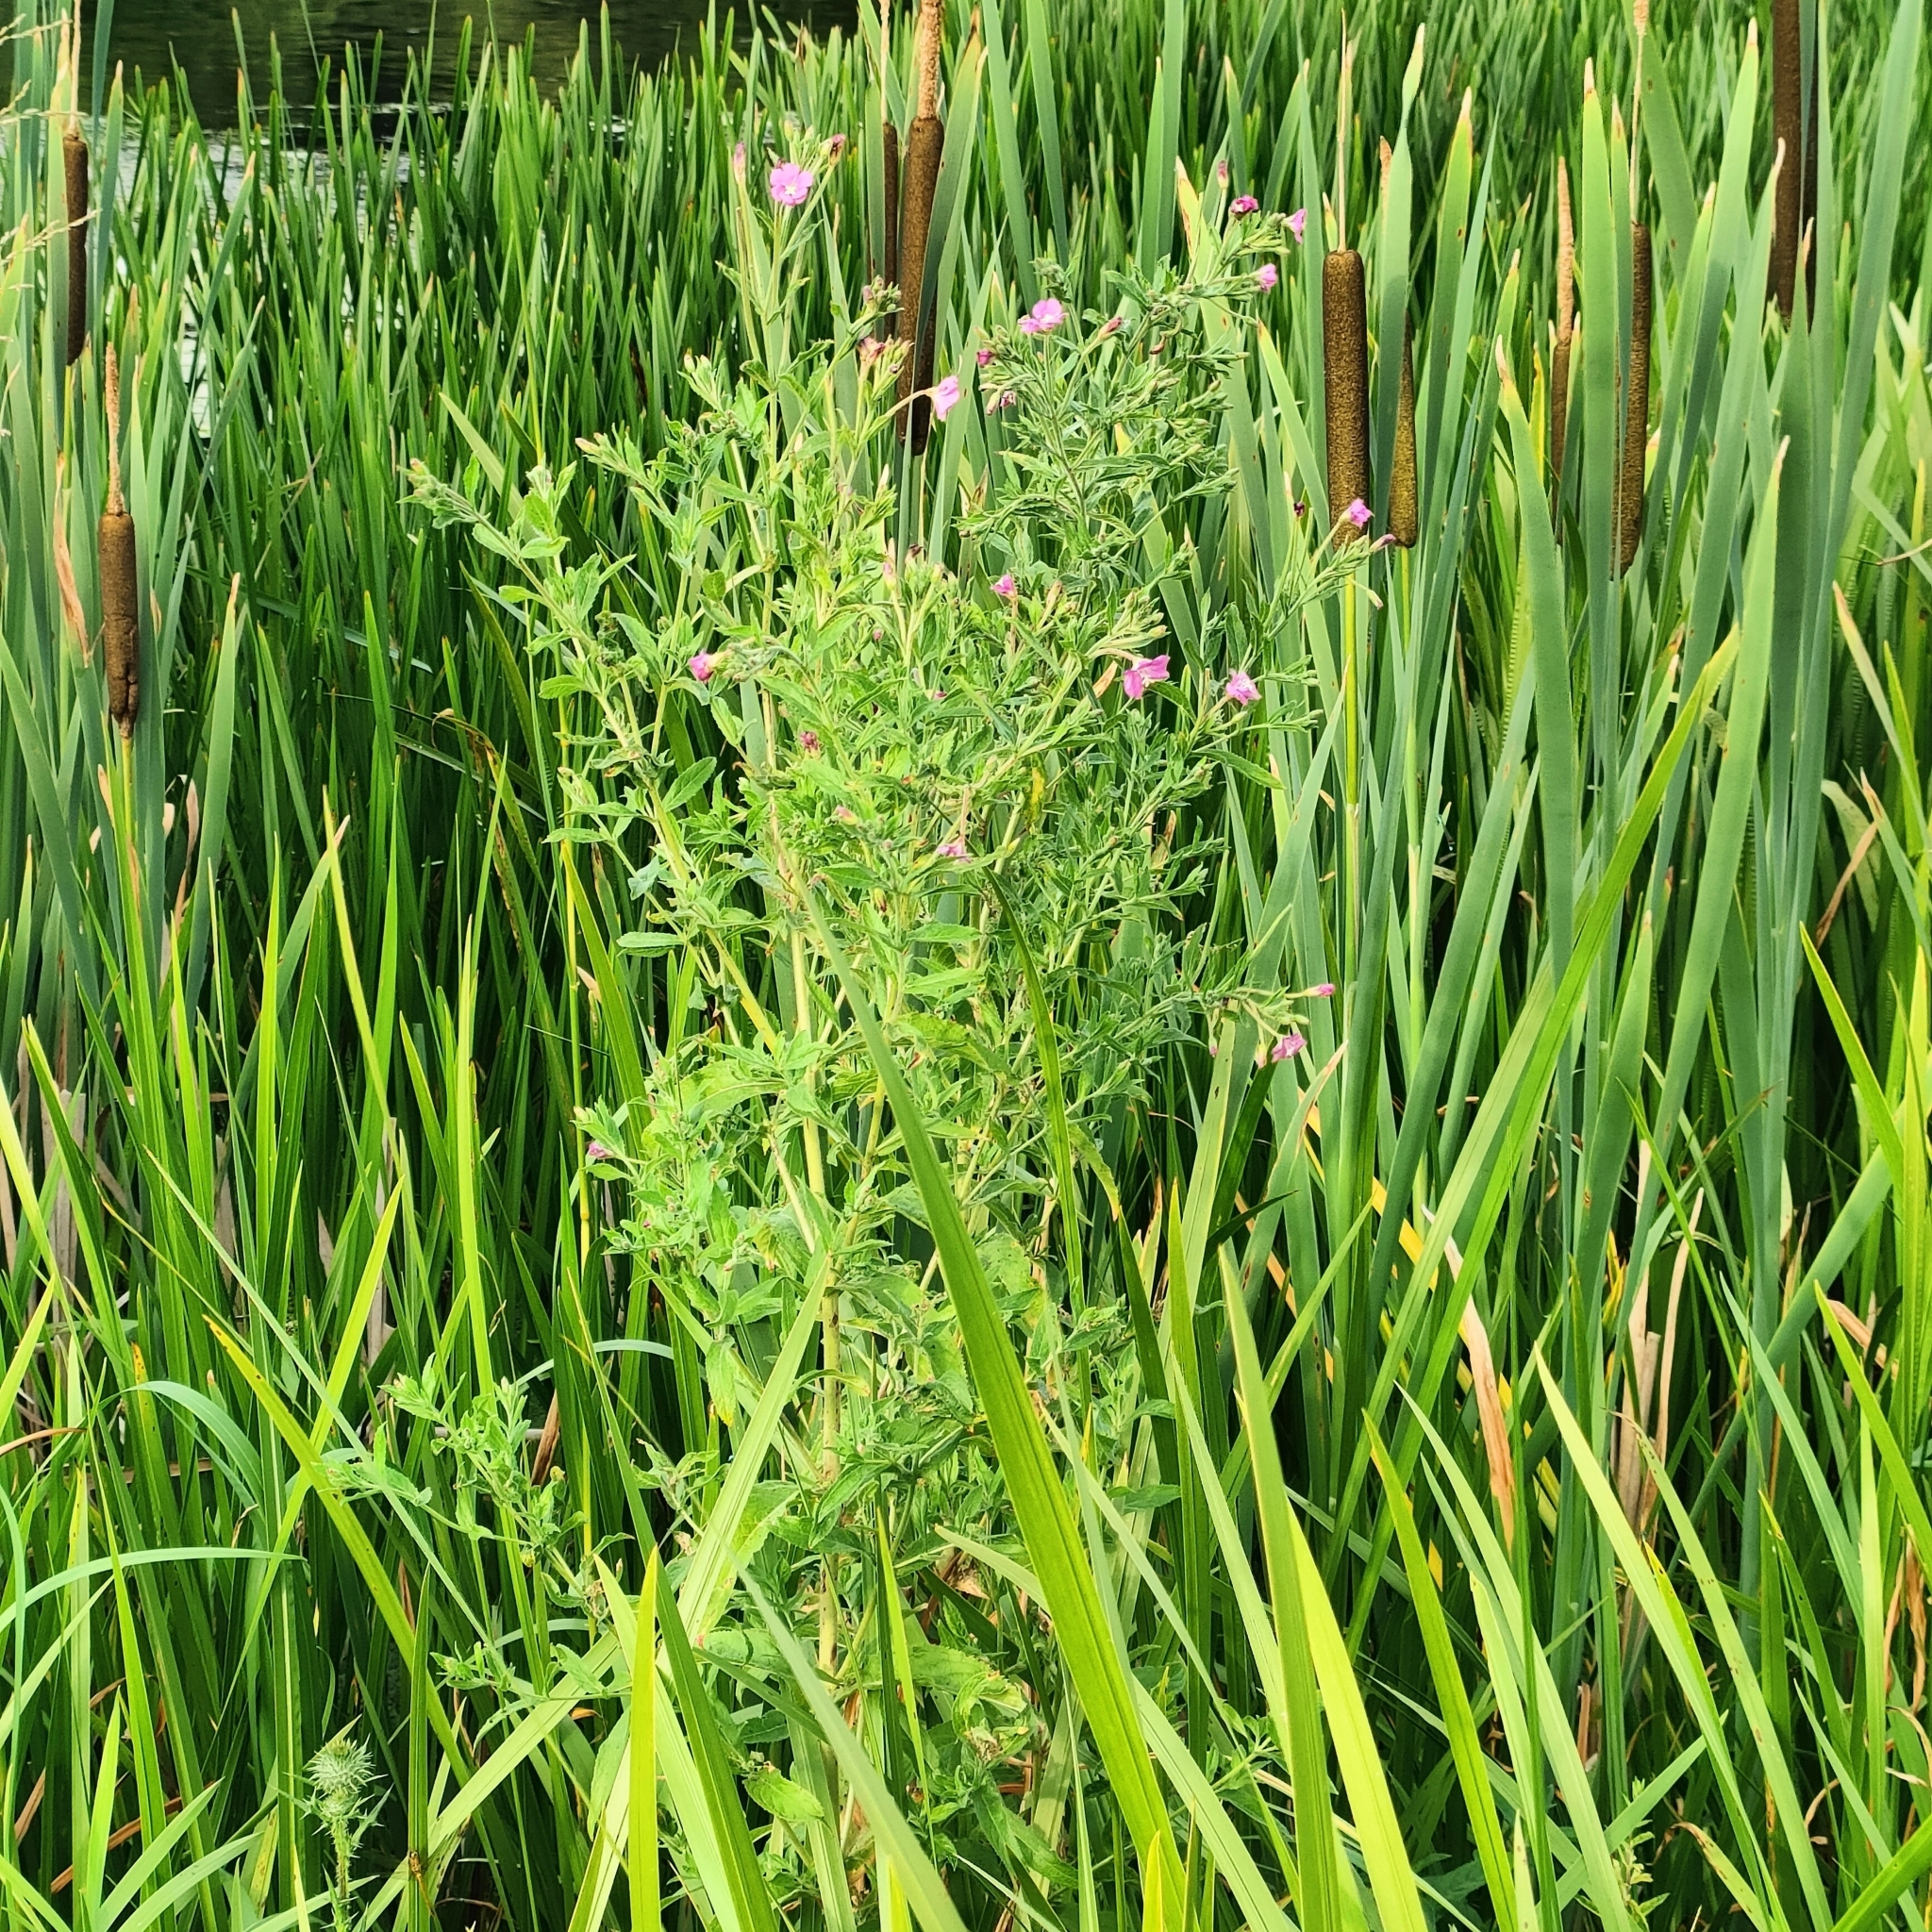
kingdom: Plantae
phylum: Tracheophyta
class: Magnoliopsida
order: Myrtales
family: Onagraceae
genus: Epilobium
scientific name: Epilobium hirsutum
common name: Great willowherb
